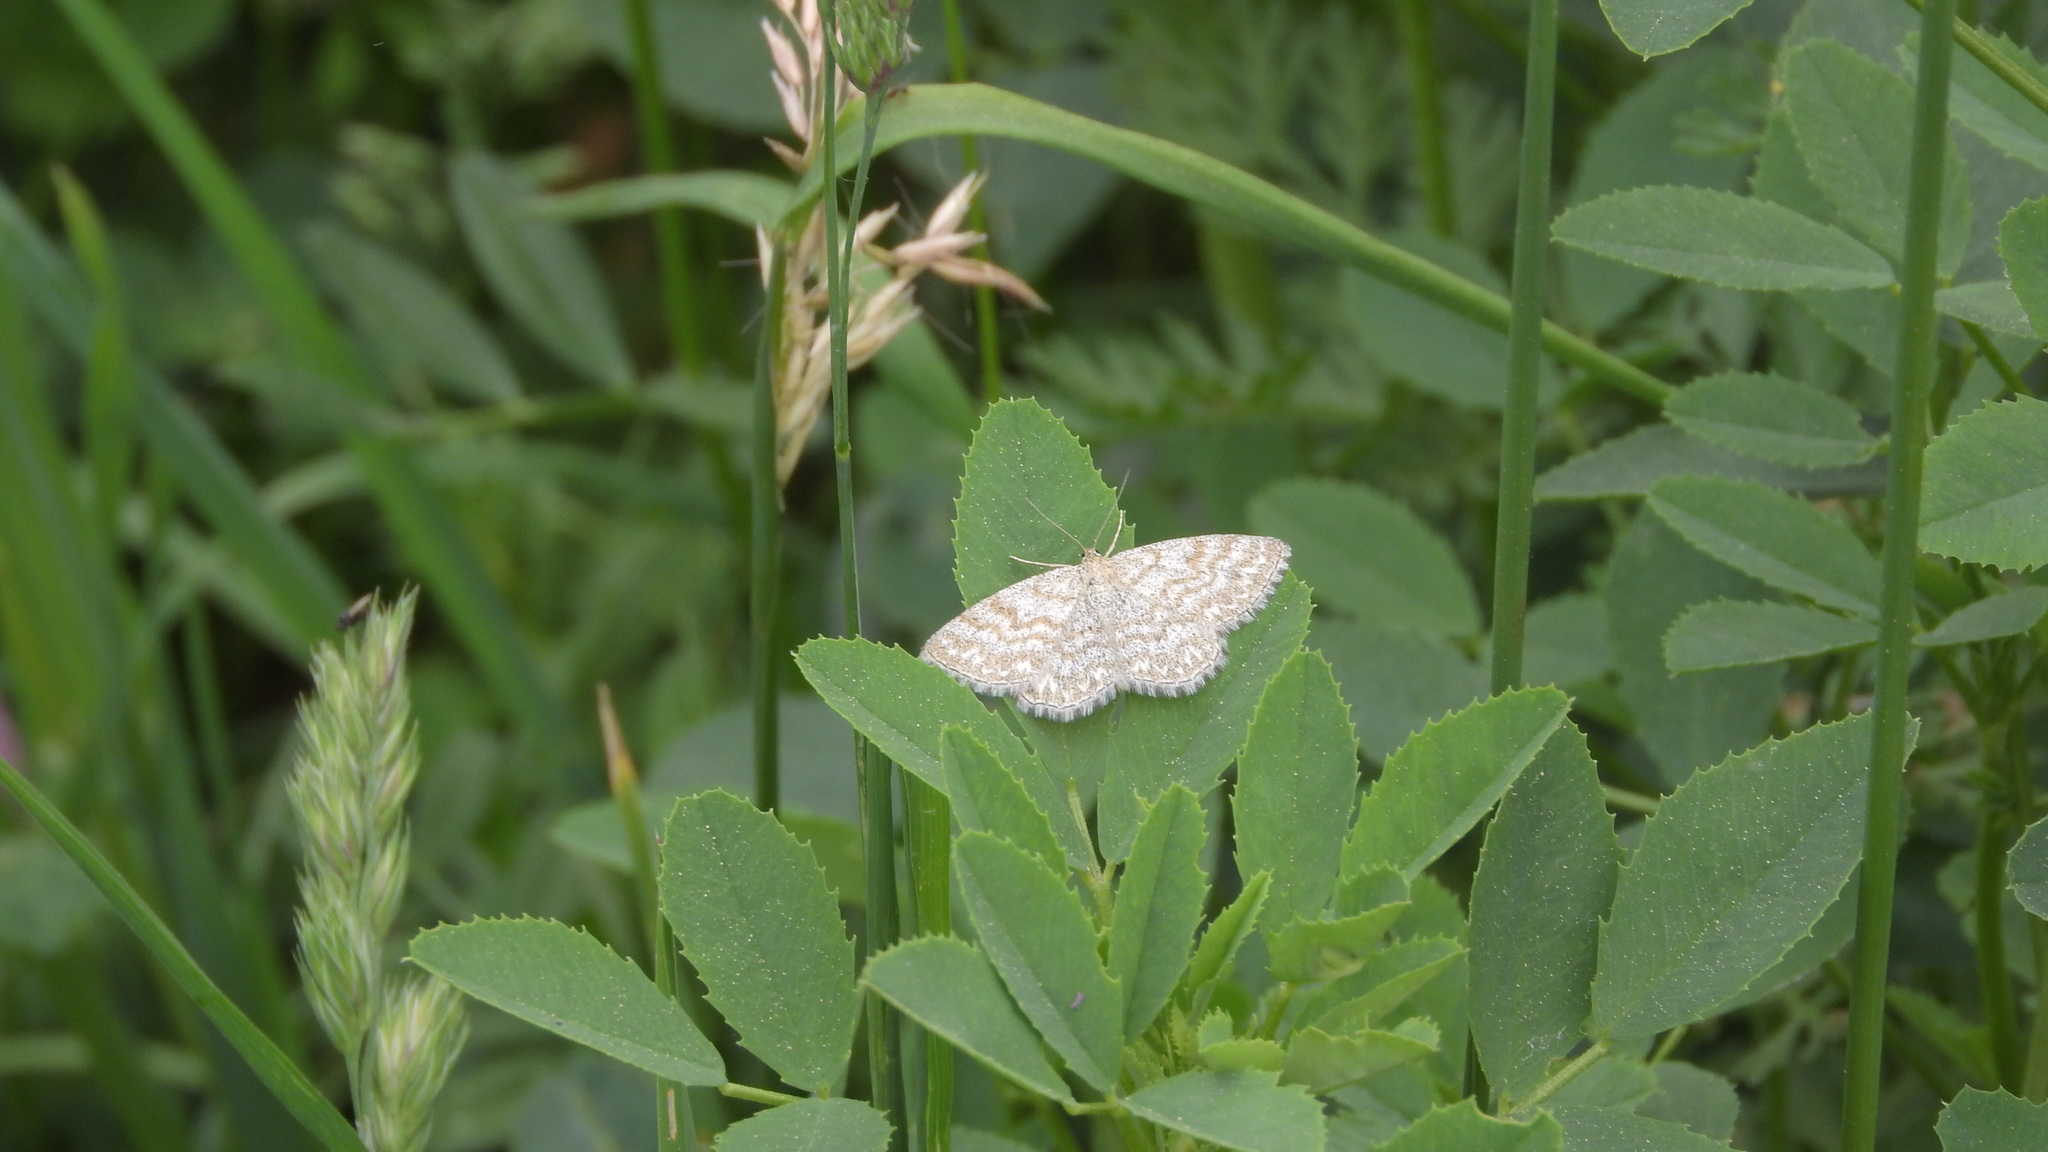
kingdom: Animalia
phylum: Arthropoda
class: Insecta
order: Lepidoptera
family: Geometridae
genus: Scopula
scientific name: Scopula immorata
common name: Lewes wave
